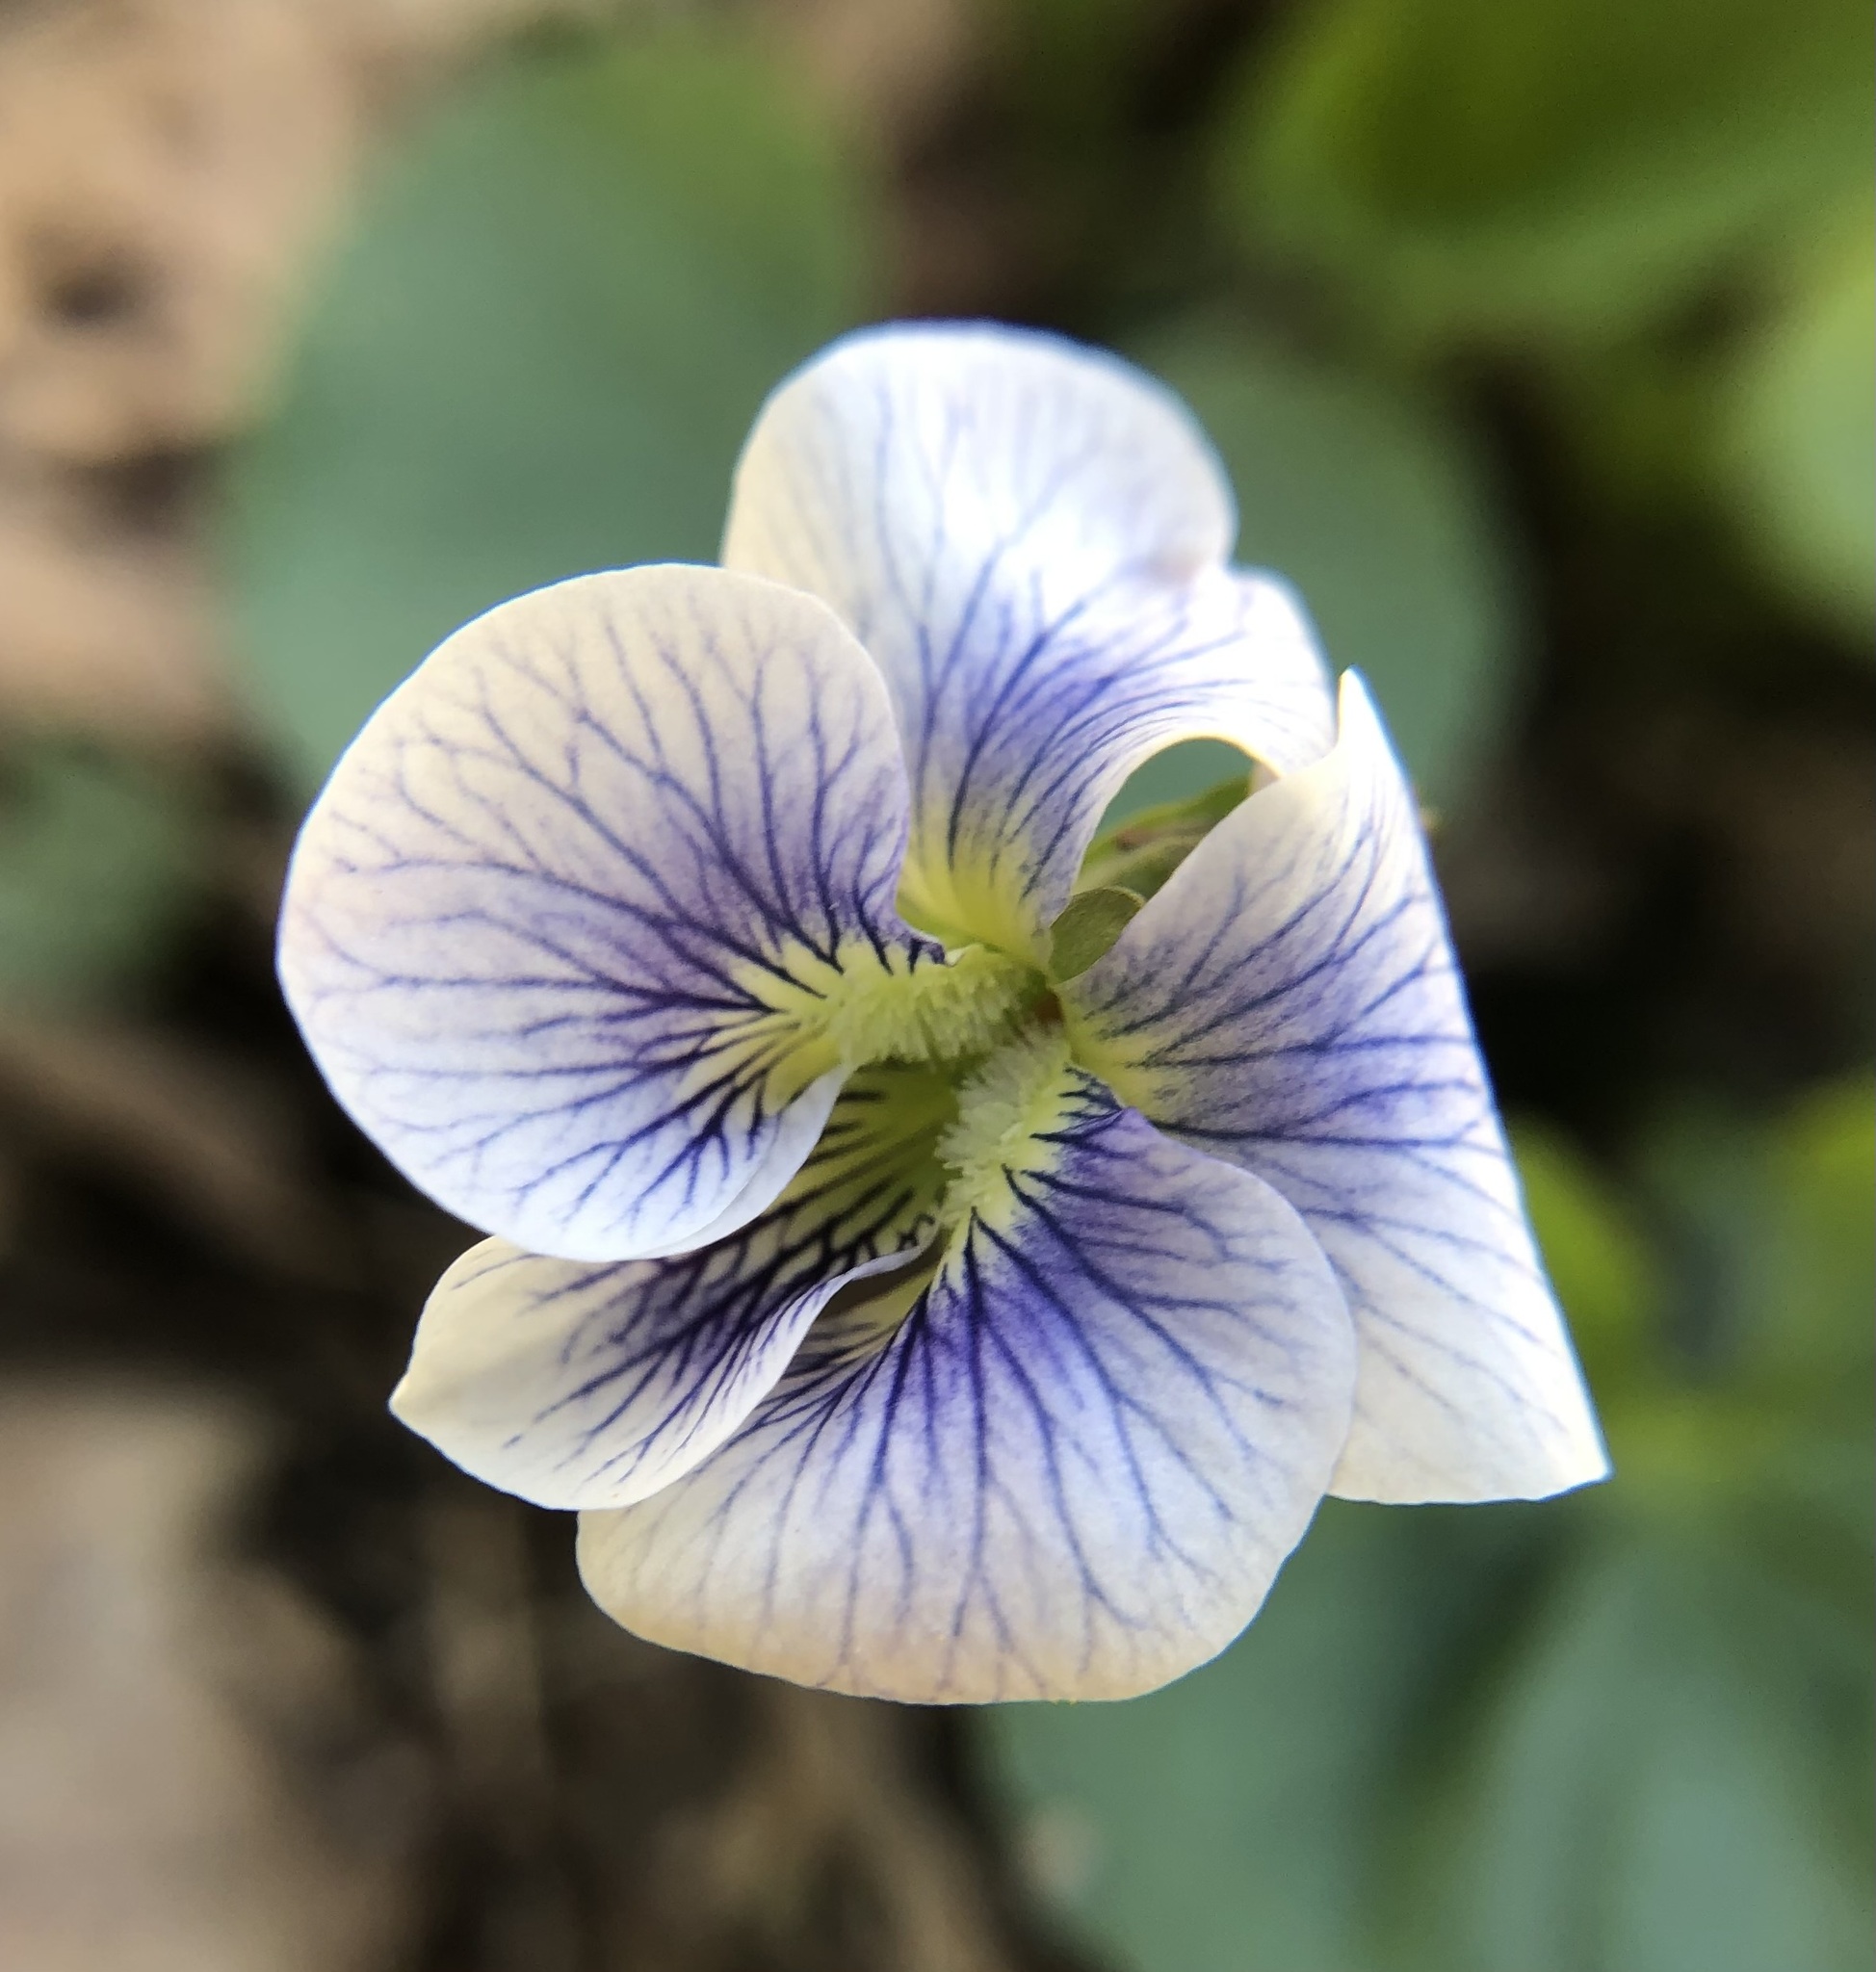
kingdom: Plantae
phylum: Tracheophyta
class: Magnoliopsida
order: Malpighiales
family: Violaceae
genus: Viola
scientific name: Viola sororia
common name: Dooryard violet
